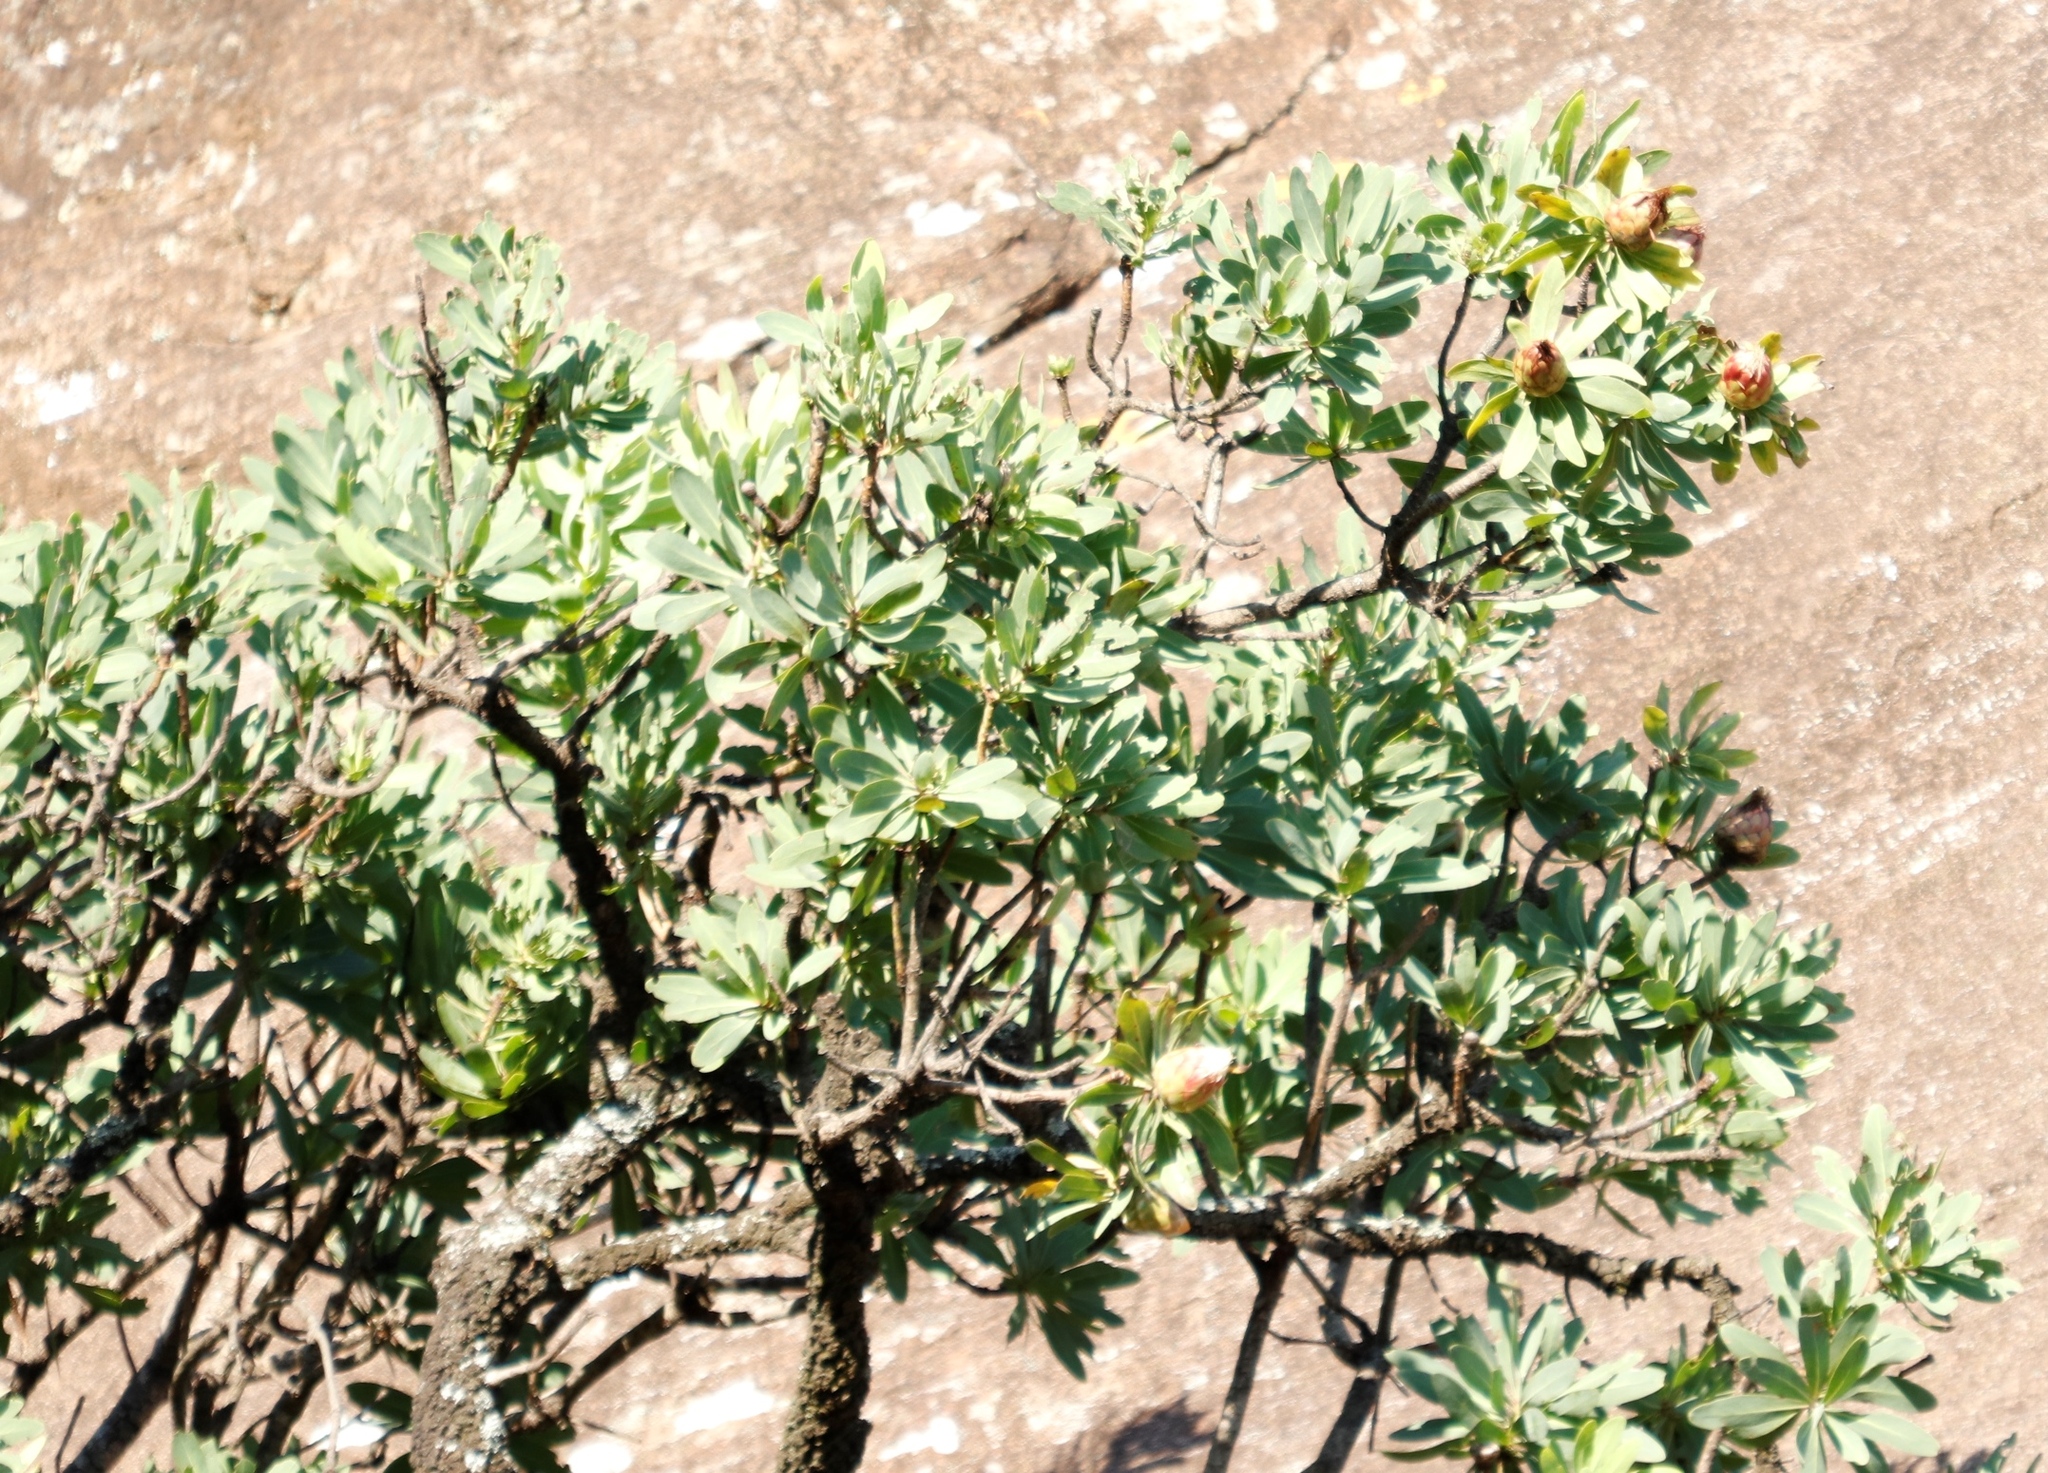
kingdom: Plantae
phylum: Tracheophyta
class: Magnoliopsida
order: Proteales
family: Proteaceae
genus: Protea
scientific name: Protea caffra
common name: Common sugarbush
